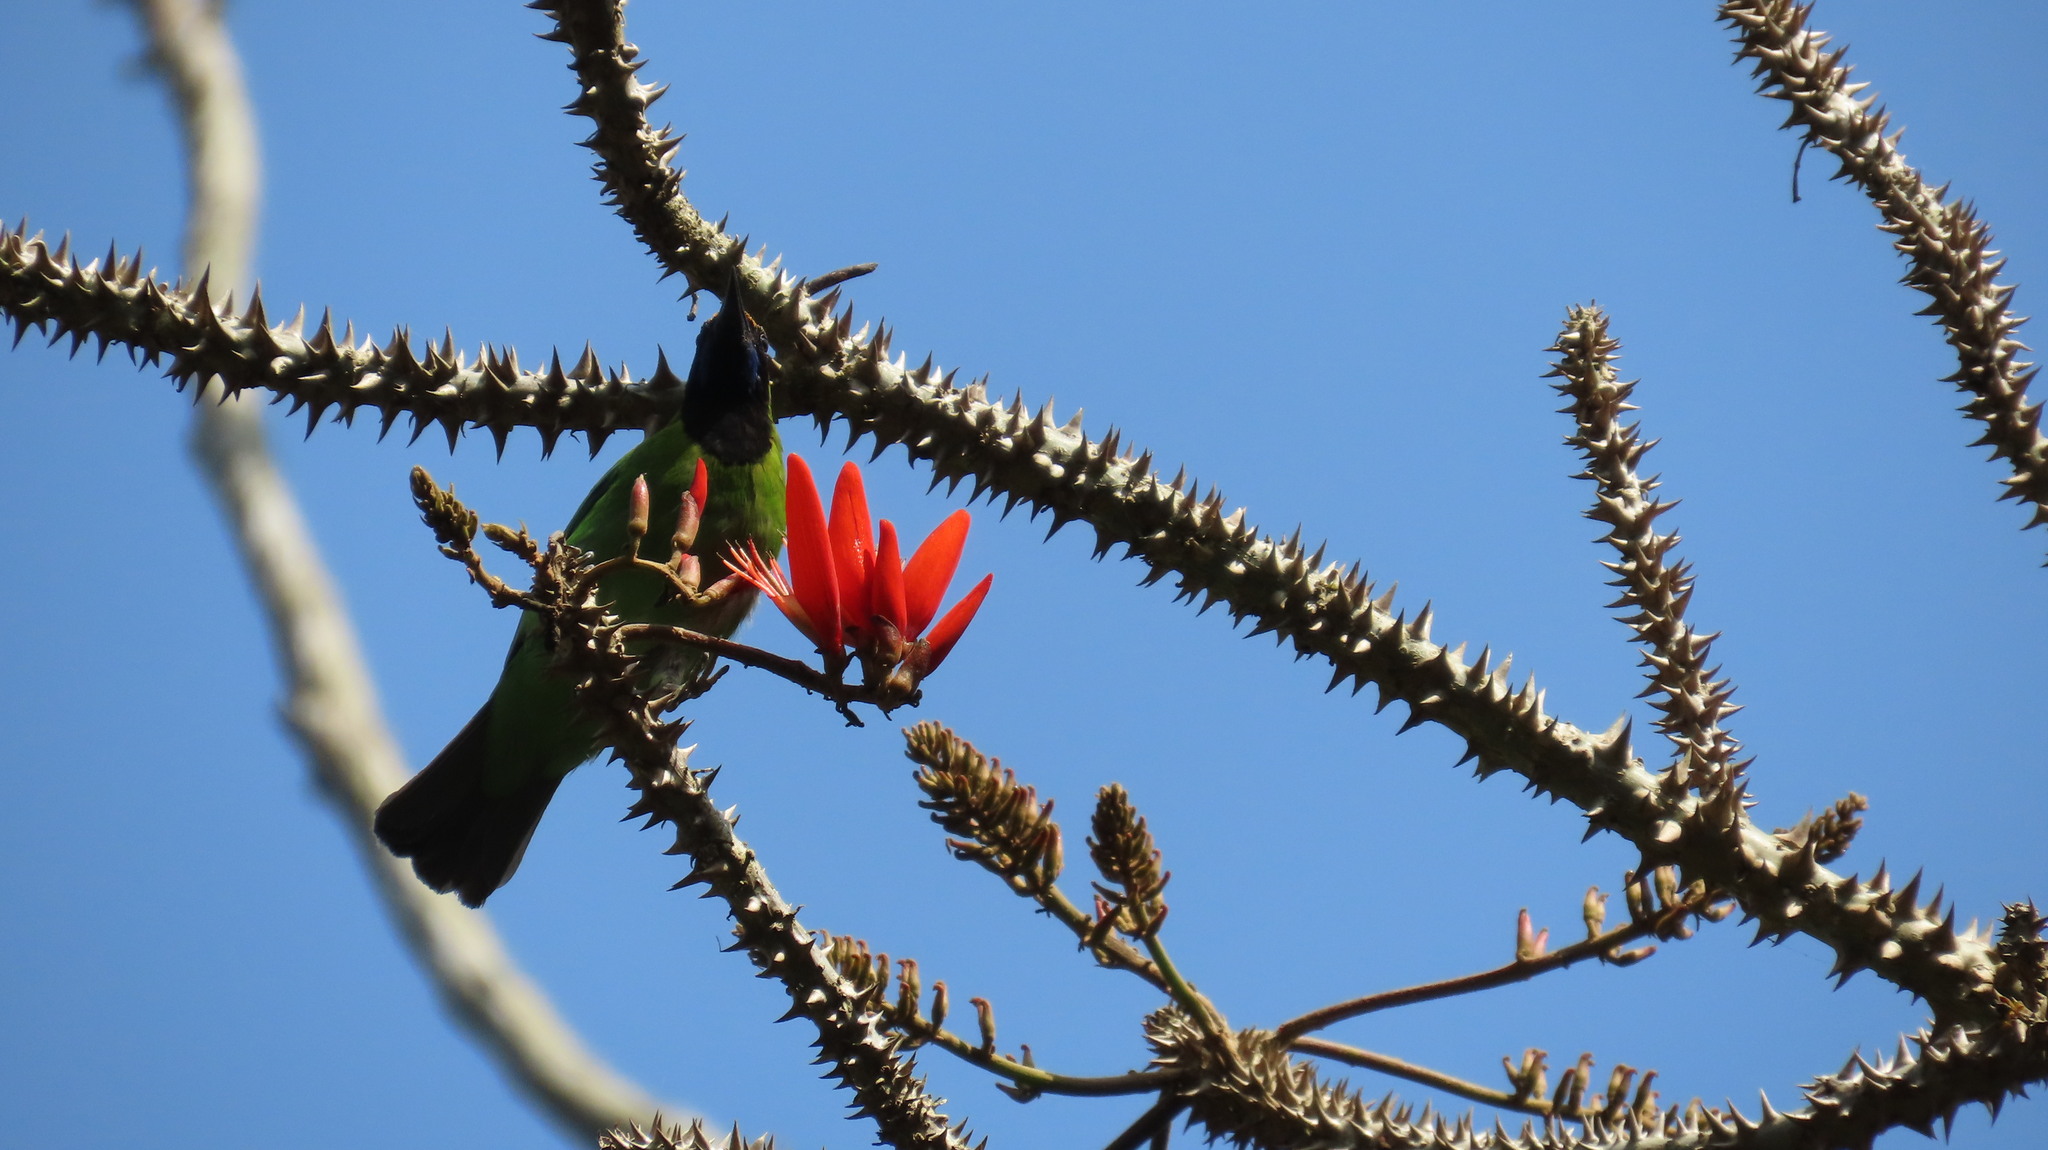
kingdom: Animalia
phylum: Chordata
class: Aves
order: Passeriformes
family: Chloropseidae
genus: Chloropsis
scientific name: Chloropsis aurifrons
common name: Golden-fronted leafbird
